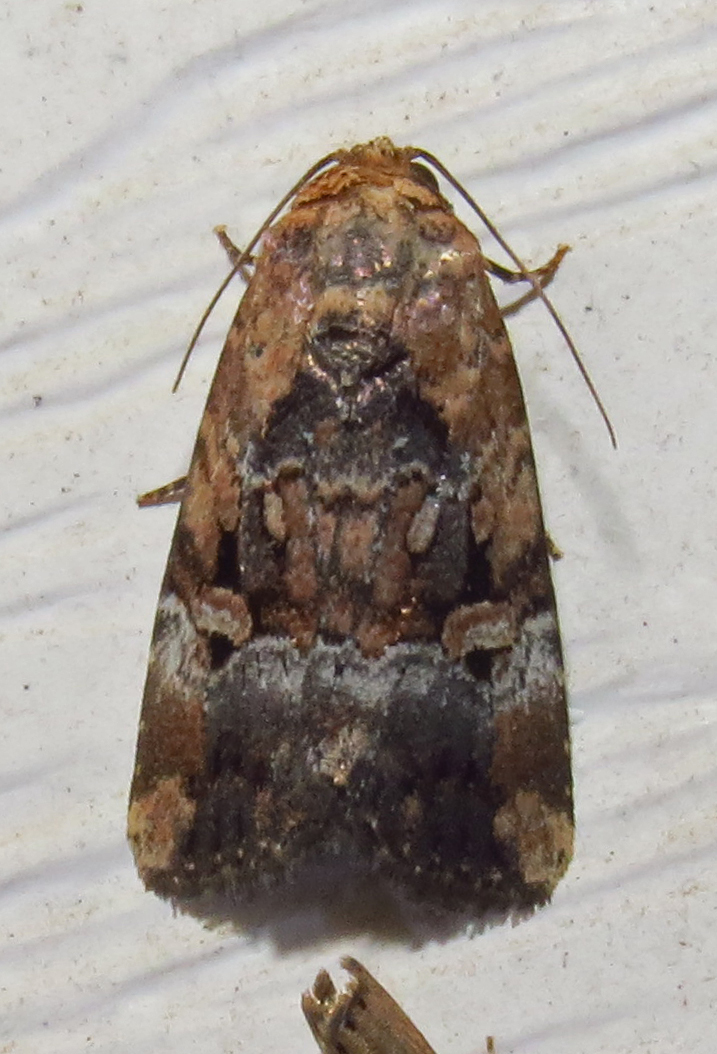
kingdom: Animalia
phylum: Arthropoda
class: Insecta
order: Lepidoptera
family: Noctuidae
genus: Elaphria
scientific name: Elaphria chalcedonia
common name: Chalcedony midget
